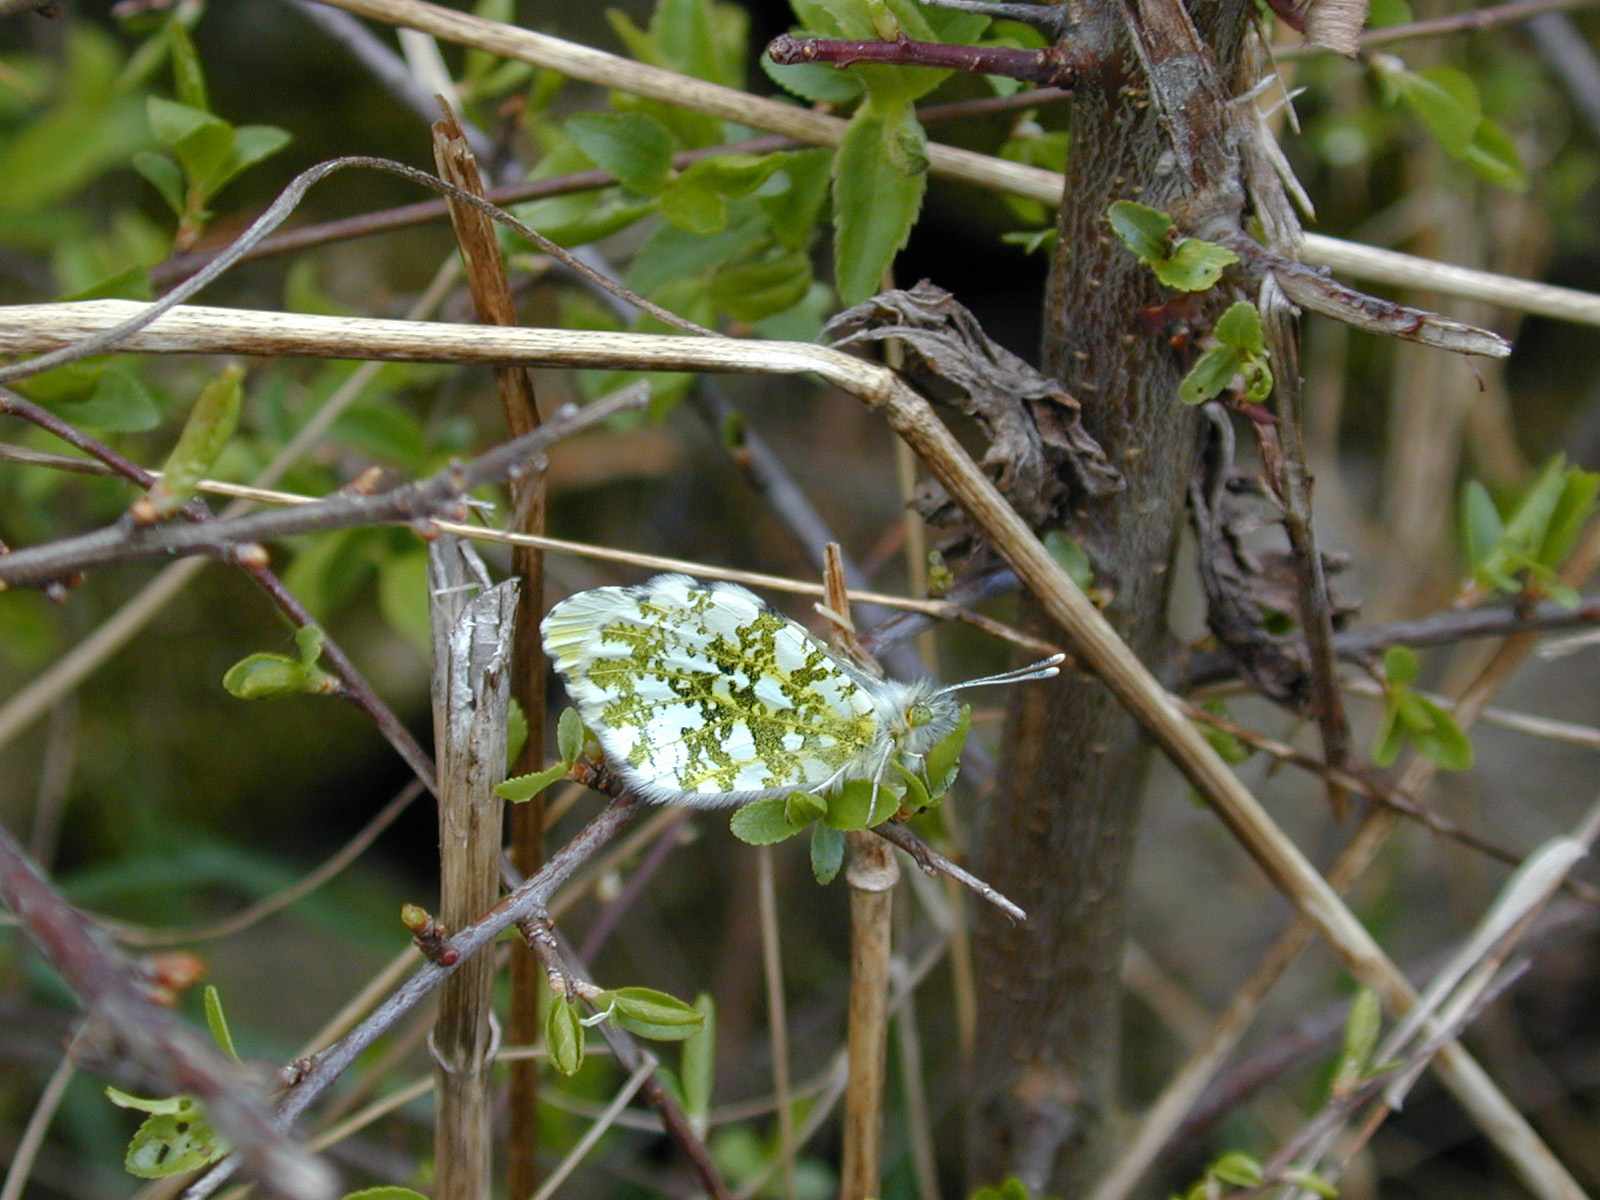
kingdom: Animalia
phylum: Arthropoda
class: Insecta
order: Lepidoptera
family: Pieridae
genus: Anthocharis
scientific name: Anthocharis cardamines
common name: Orange-tip
